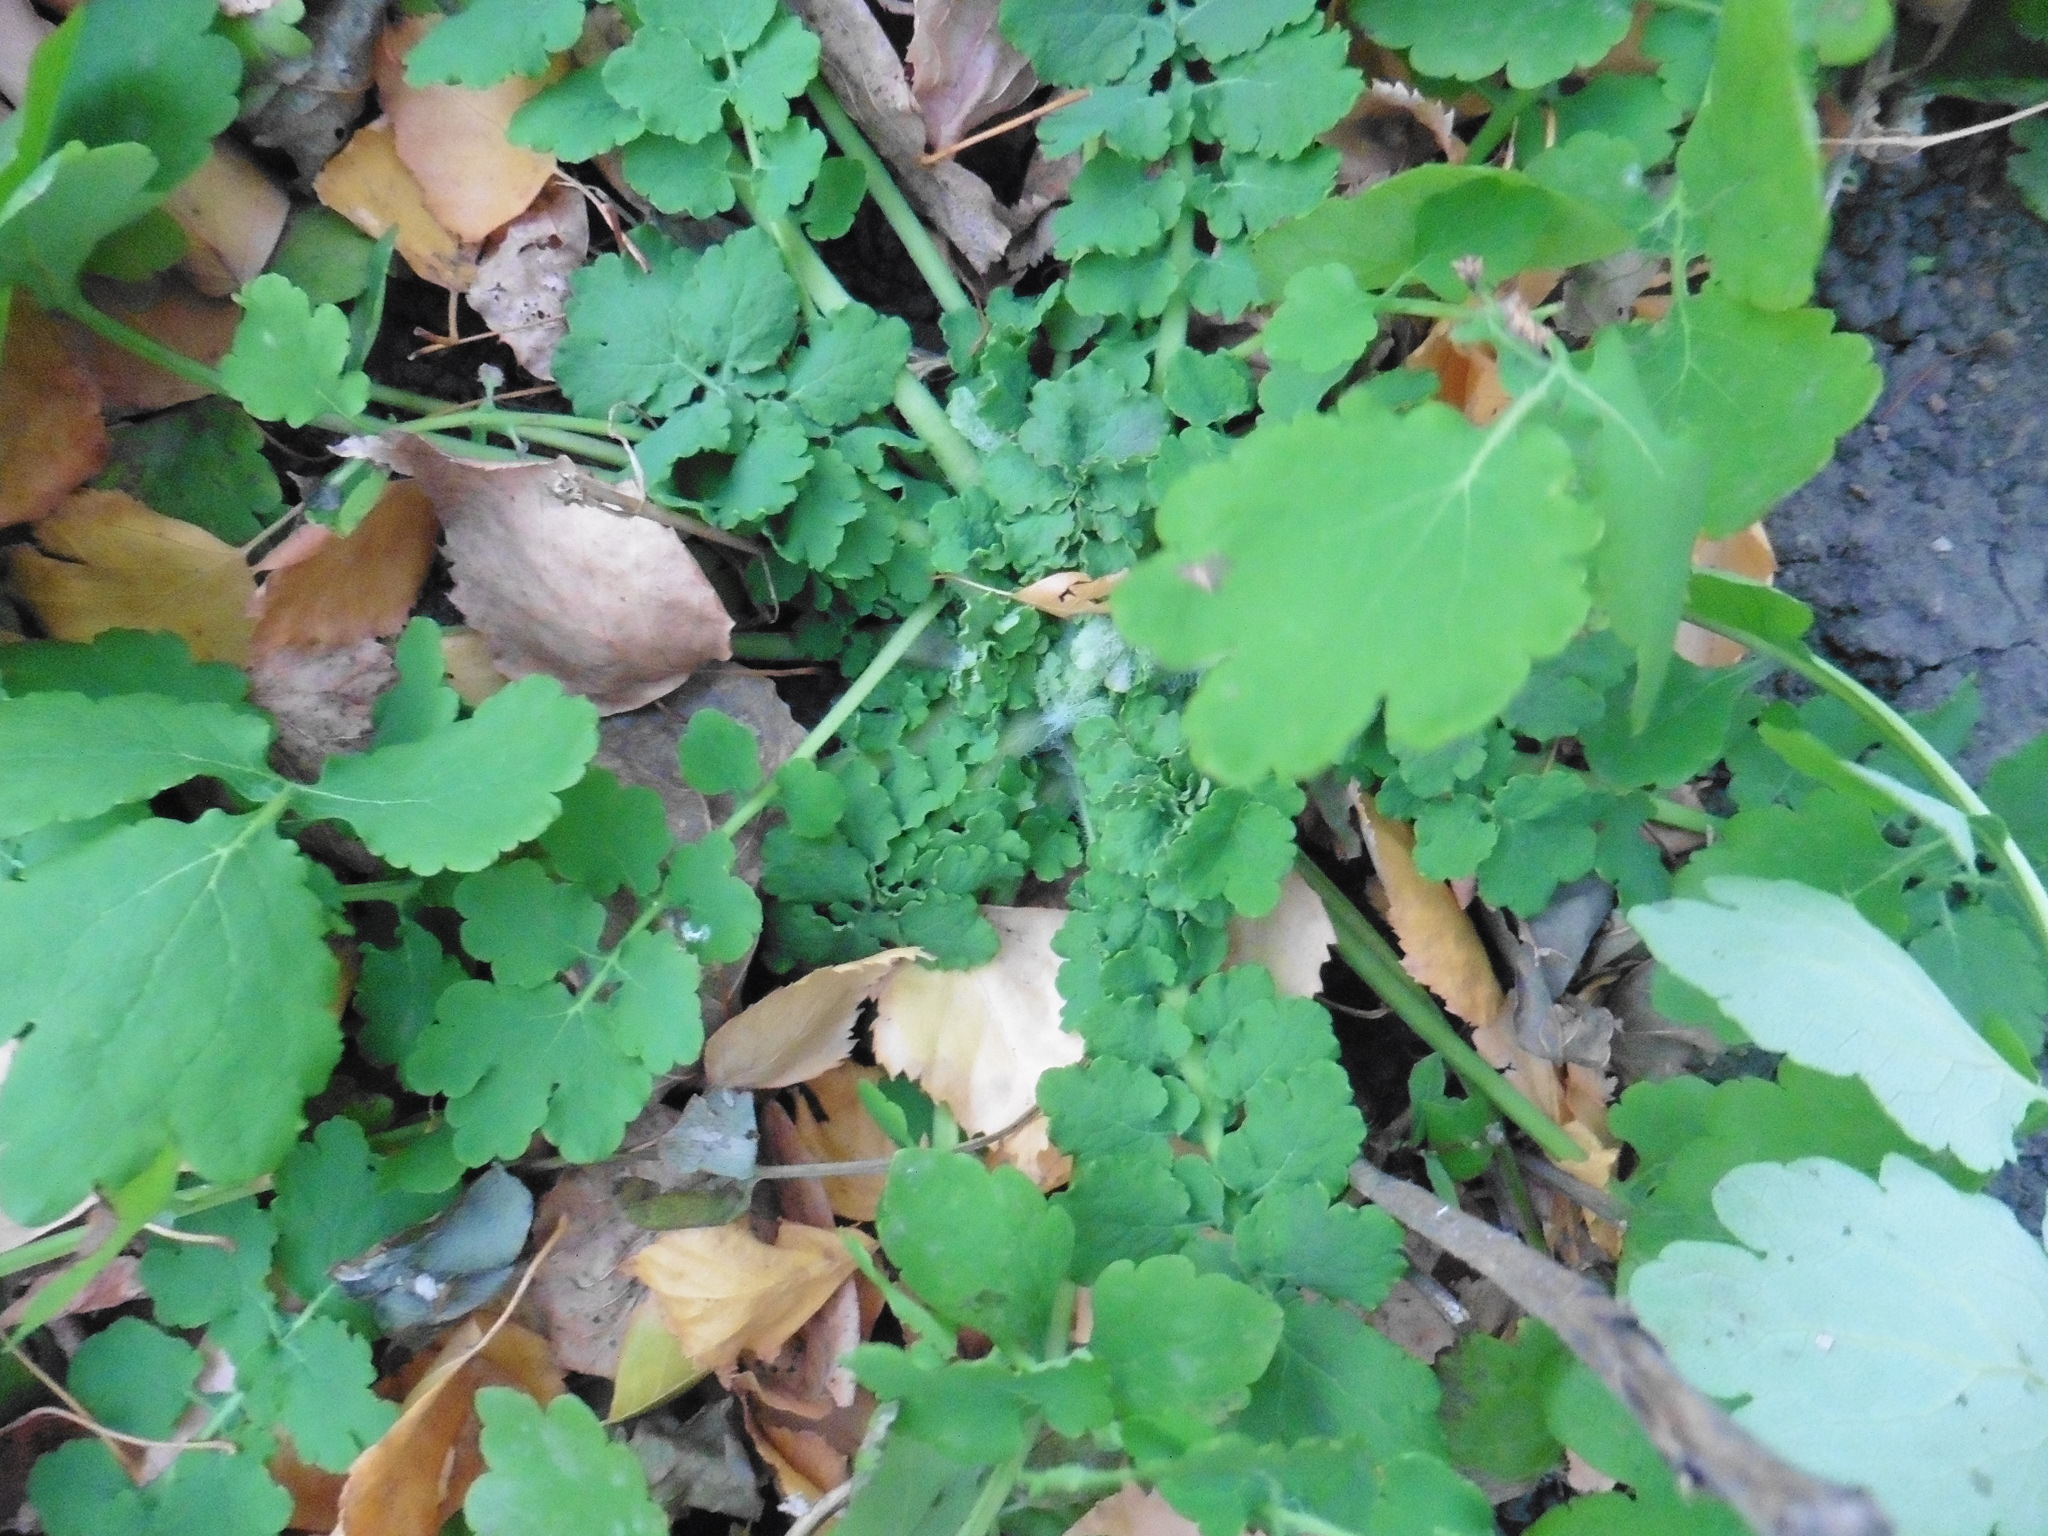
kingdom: Plantae
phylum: Tracheophyta
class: Magnoliopsida
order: Ranunculales
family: Papaveraceae
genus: Chelidonium
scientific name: Chelidonium majus
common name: Greater celandine
